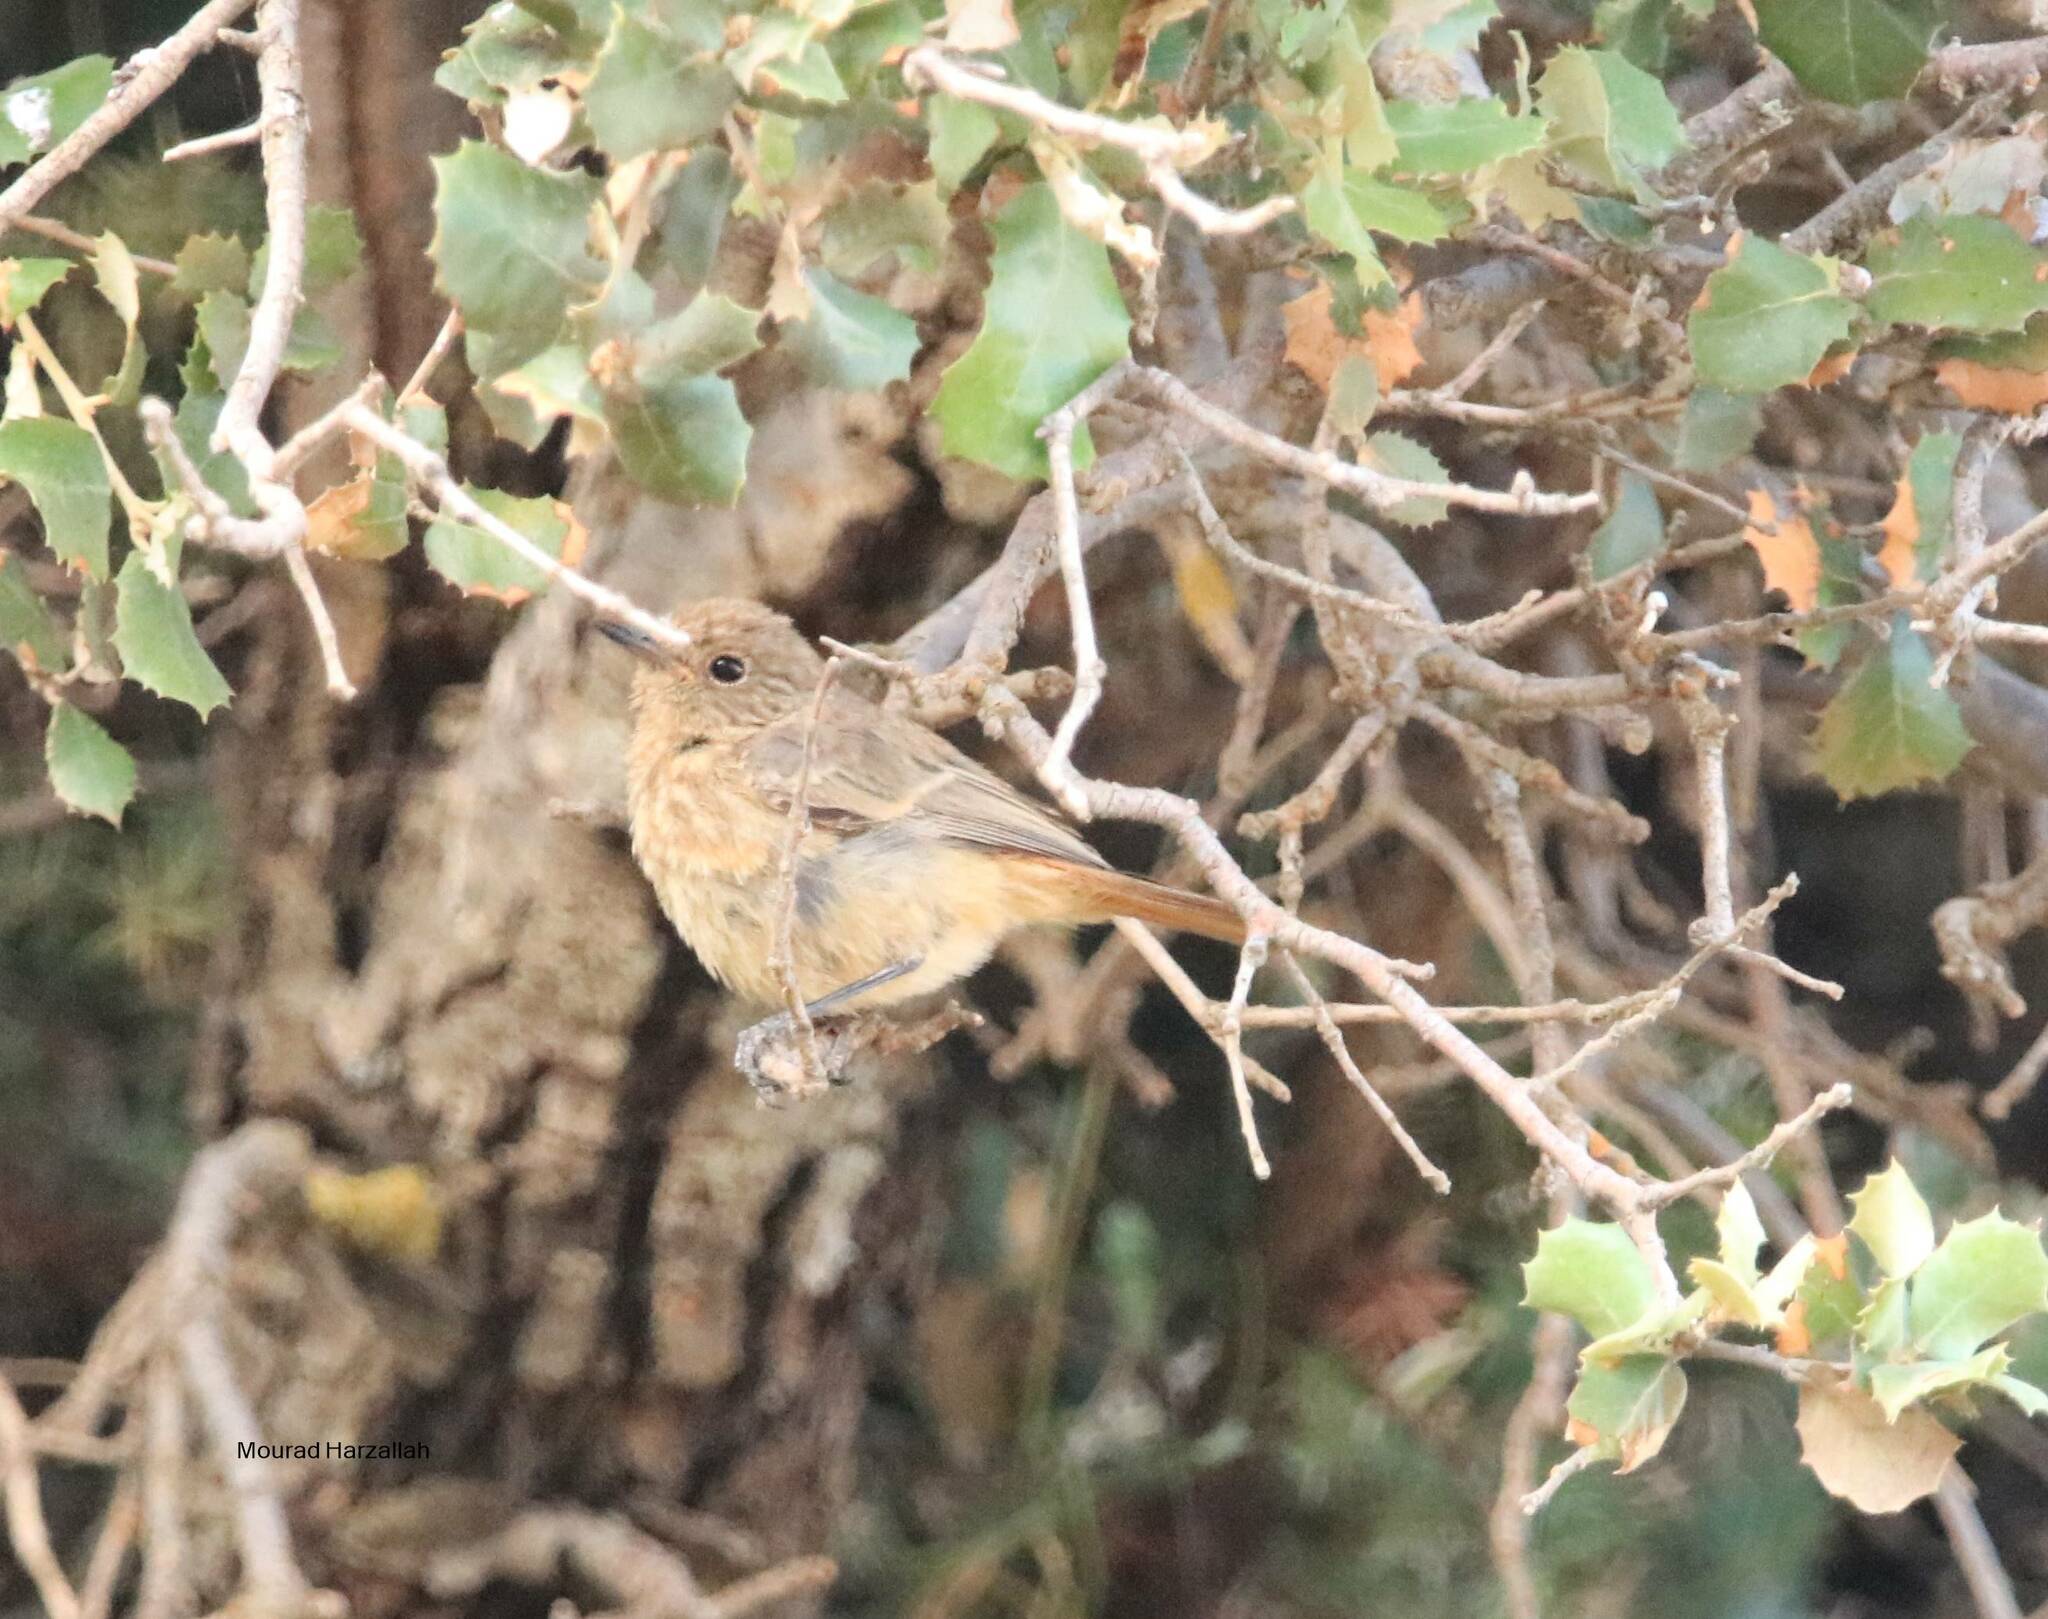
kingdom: Animalia
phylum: Chordata
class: Aves
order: Passeriformes
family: Muscicapidae
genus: Phoenicurus
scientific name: Phoenicurus phoenicurus
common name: Common redstart
